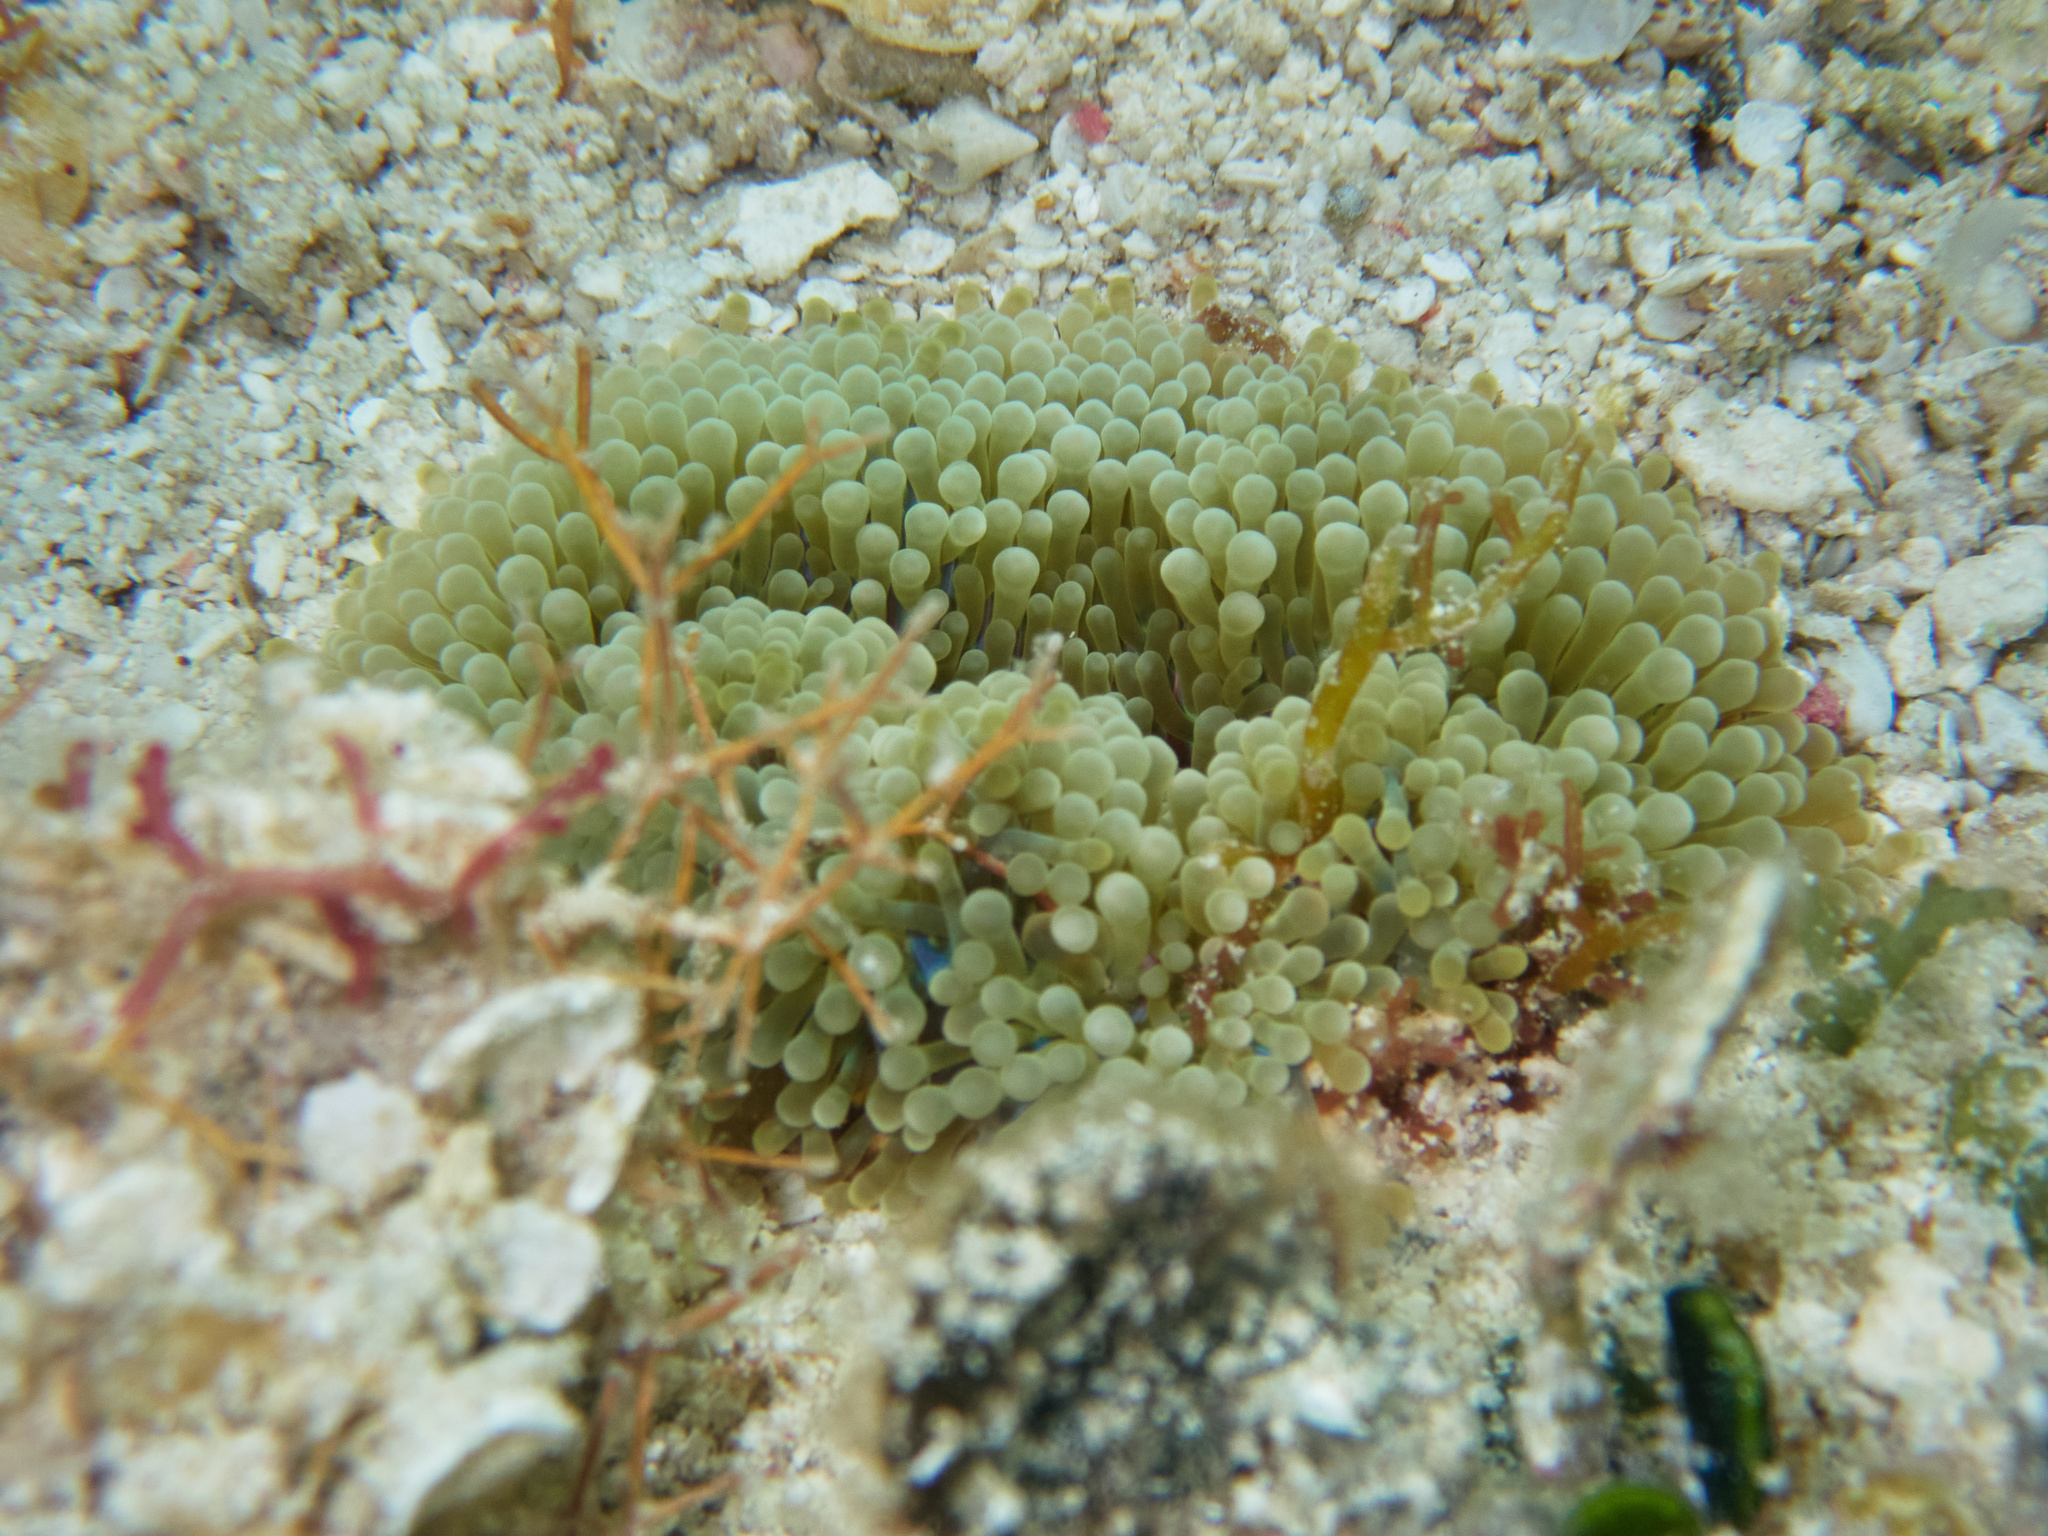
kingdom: Animalia
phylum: Cnidaria
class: Anthozoa
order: Actiniaria
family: Stichodactylidae
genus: Stichodactyla
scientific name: Stichodactyla helianthus
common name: Sun anemone
